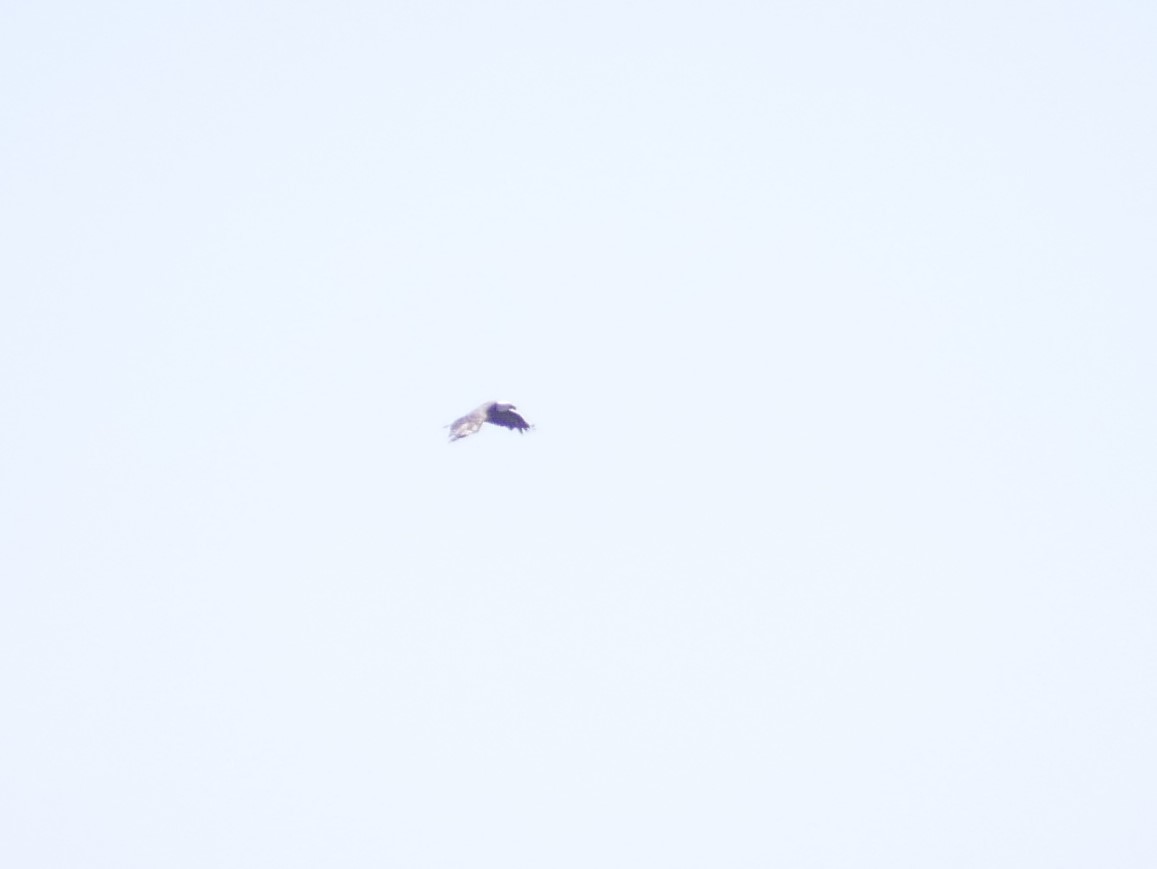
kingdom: Animalia
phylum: Chordata
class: Aves
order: Accipitriformes
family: Accipitridae
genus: Haliaeetus
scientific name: Haliaeetus leucocephalus
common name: Bald eagle
